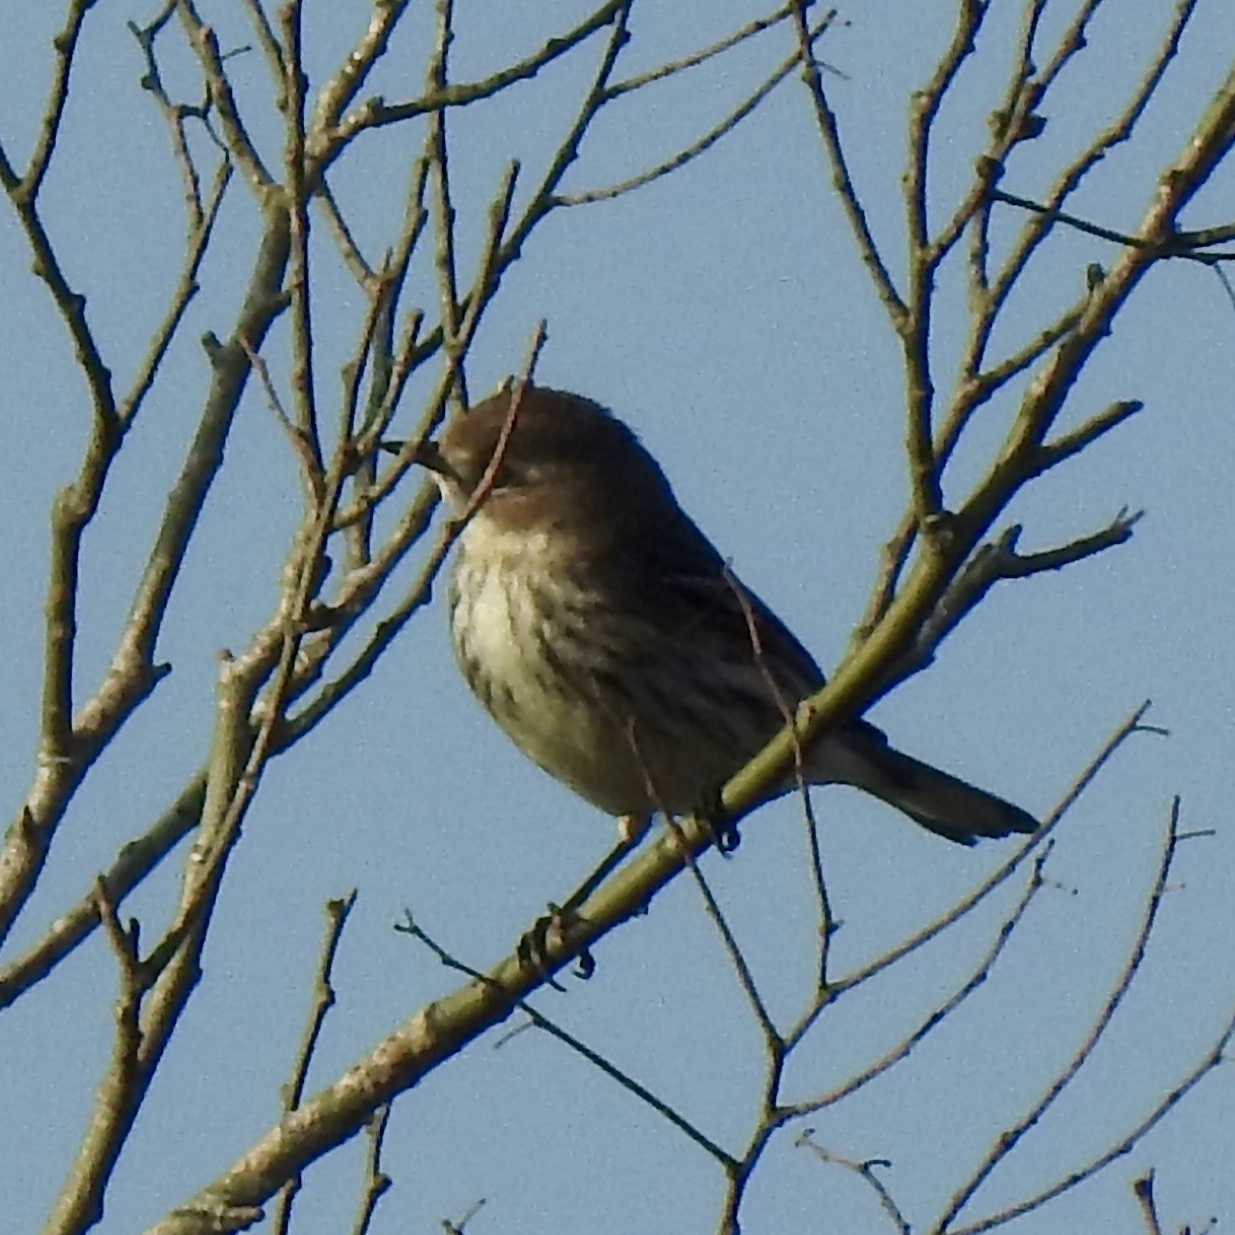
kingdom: Animalia
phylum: Chordata
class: Aves
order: Passeriformes
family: Parulidae
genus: Setophaga
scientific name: Setophaga coronata
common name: Myrtle warbler
